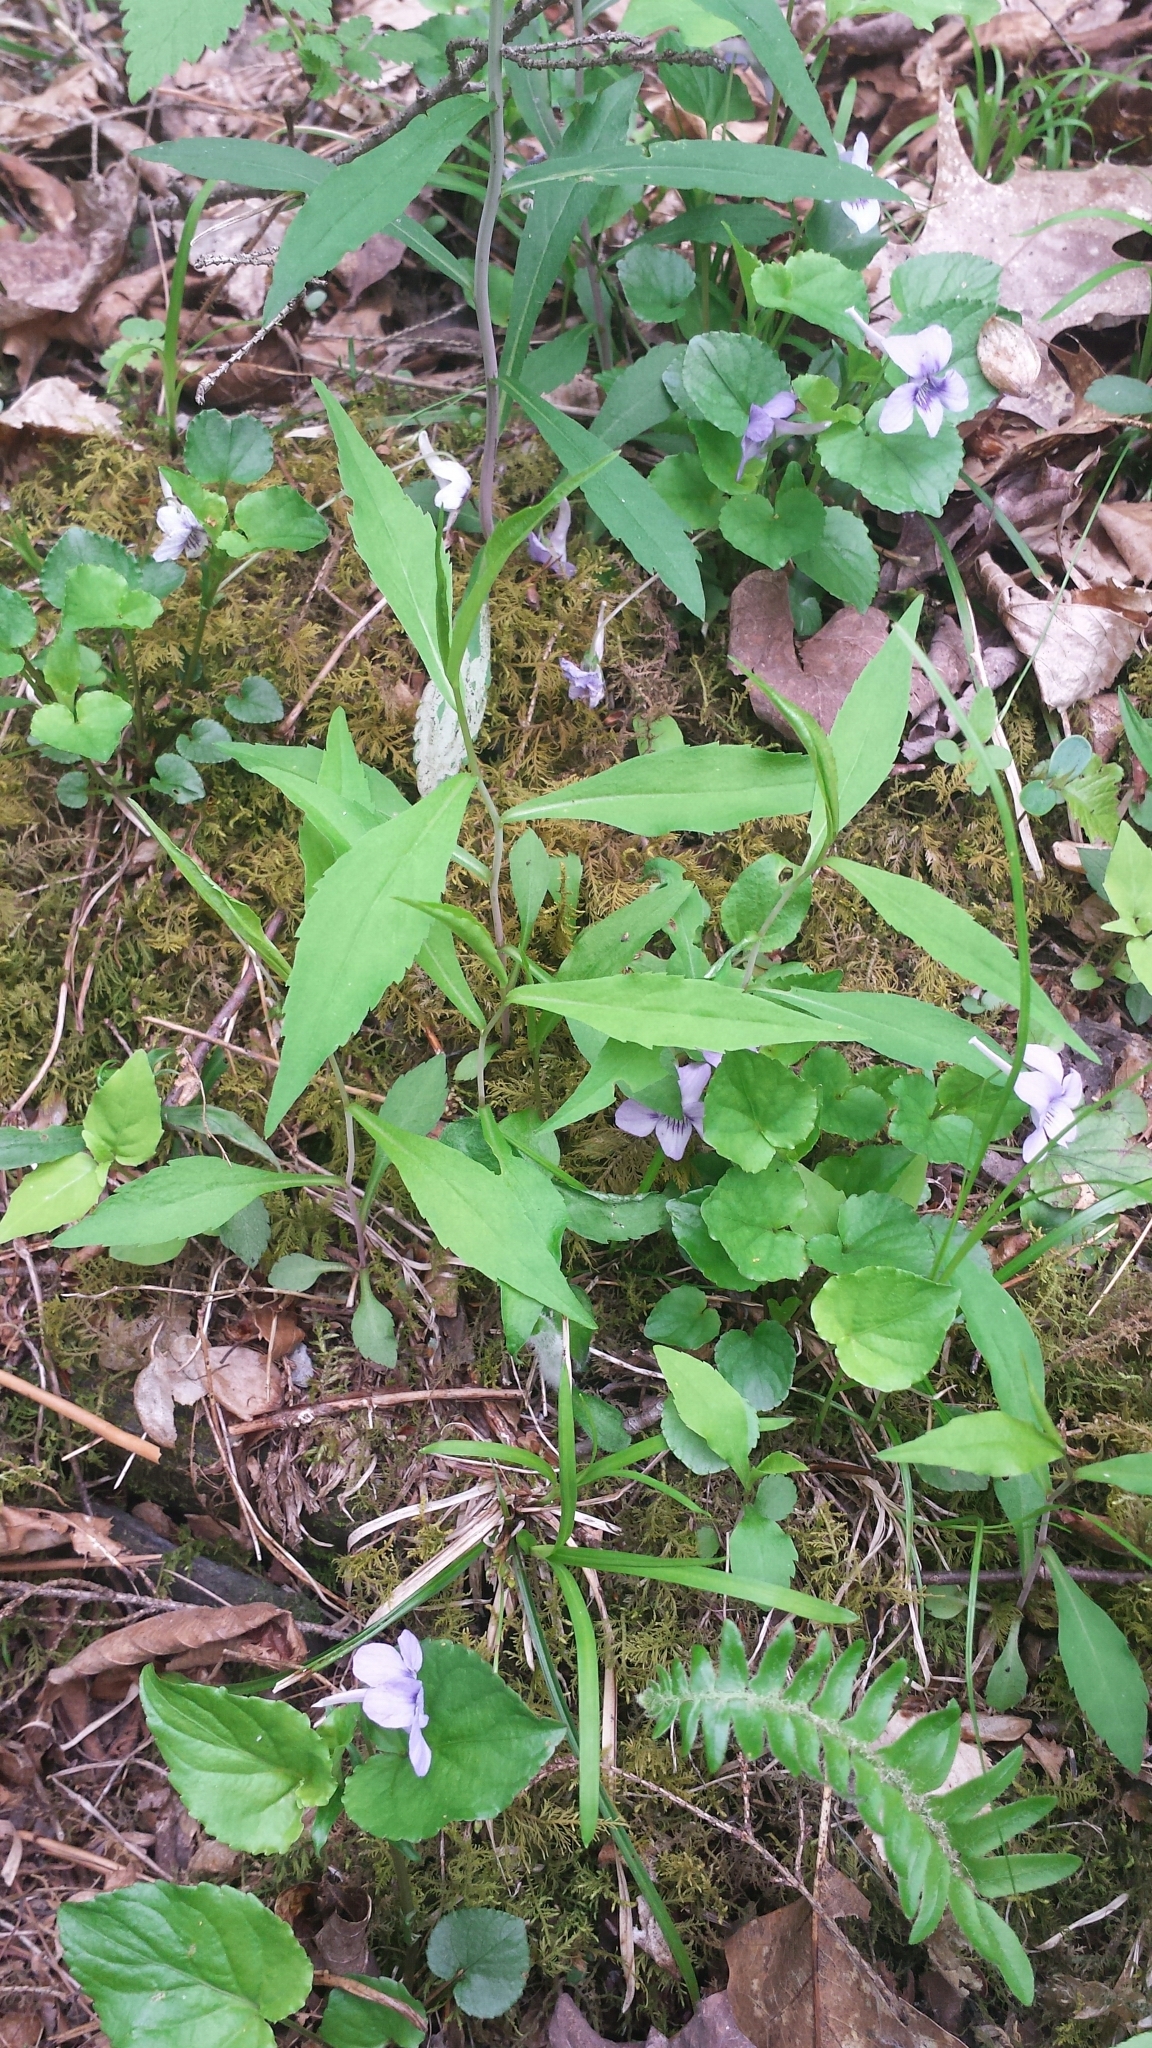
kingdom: Plantae
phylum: Tracheophyta
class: Magnoliopsida
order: Malpighiales
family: Violaceae
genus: Viola
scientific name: Viola rostrata
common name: Long-spur violet
